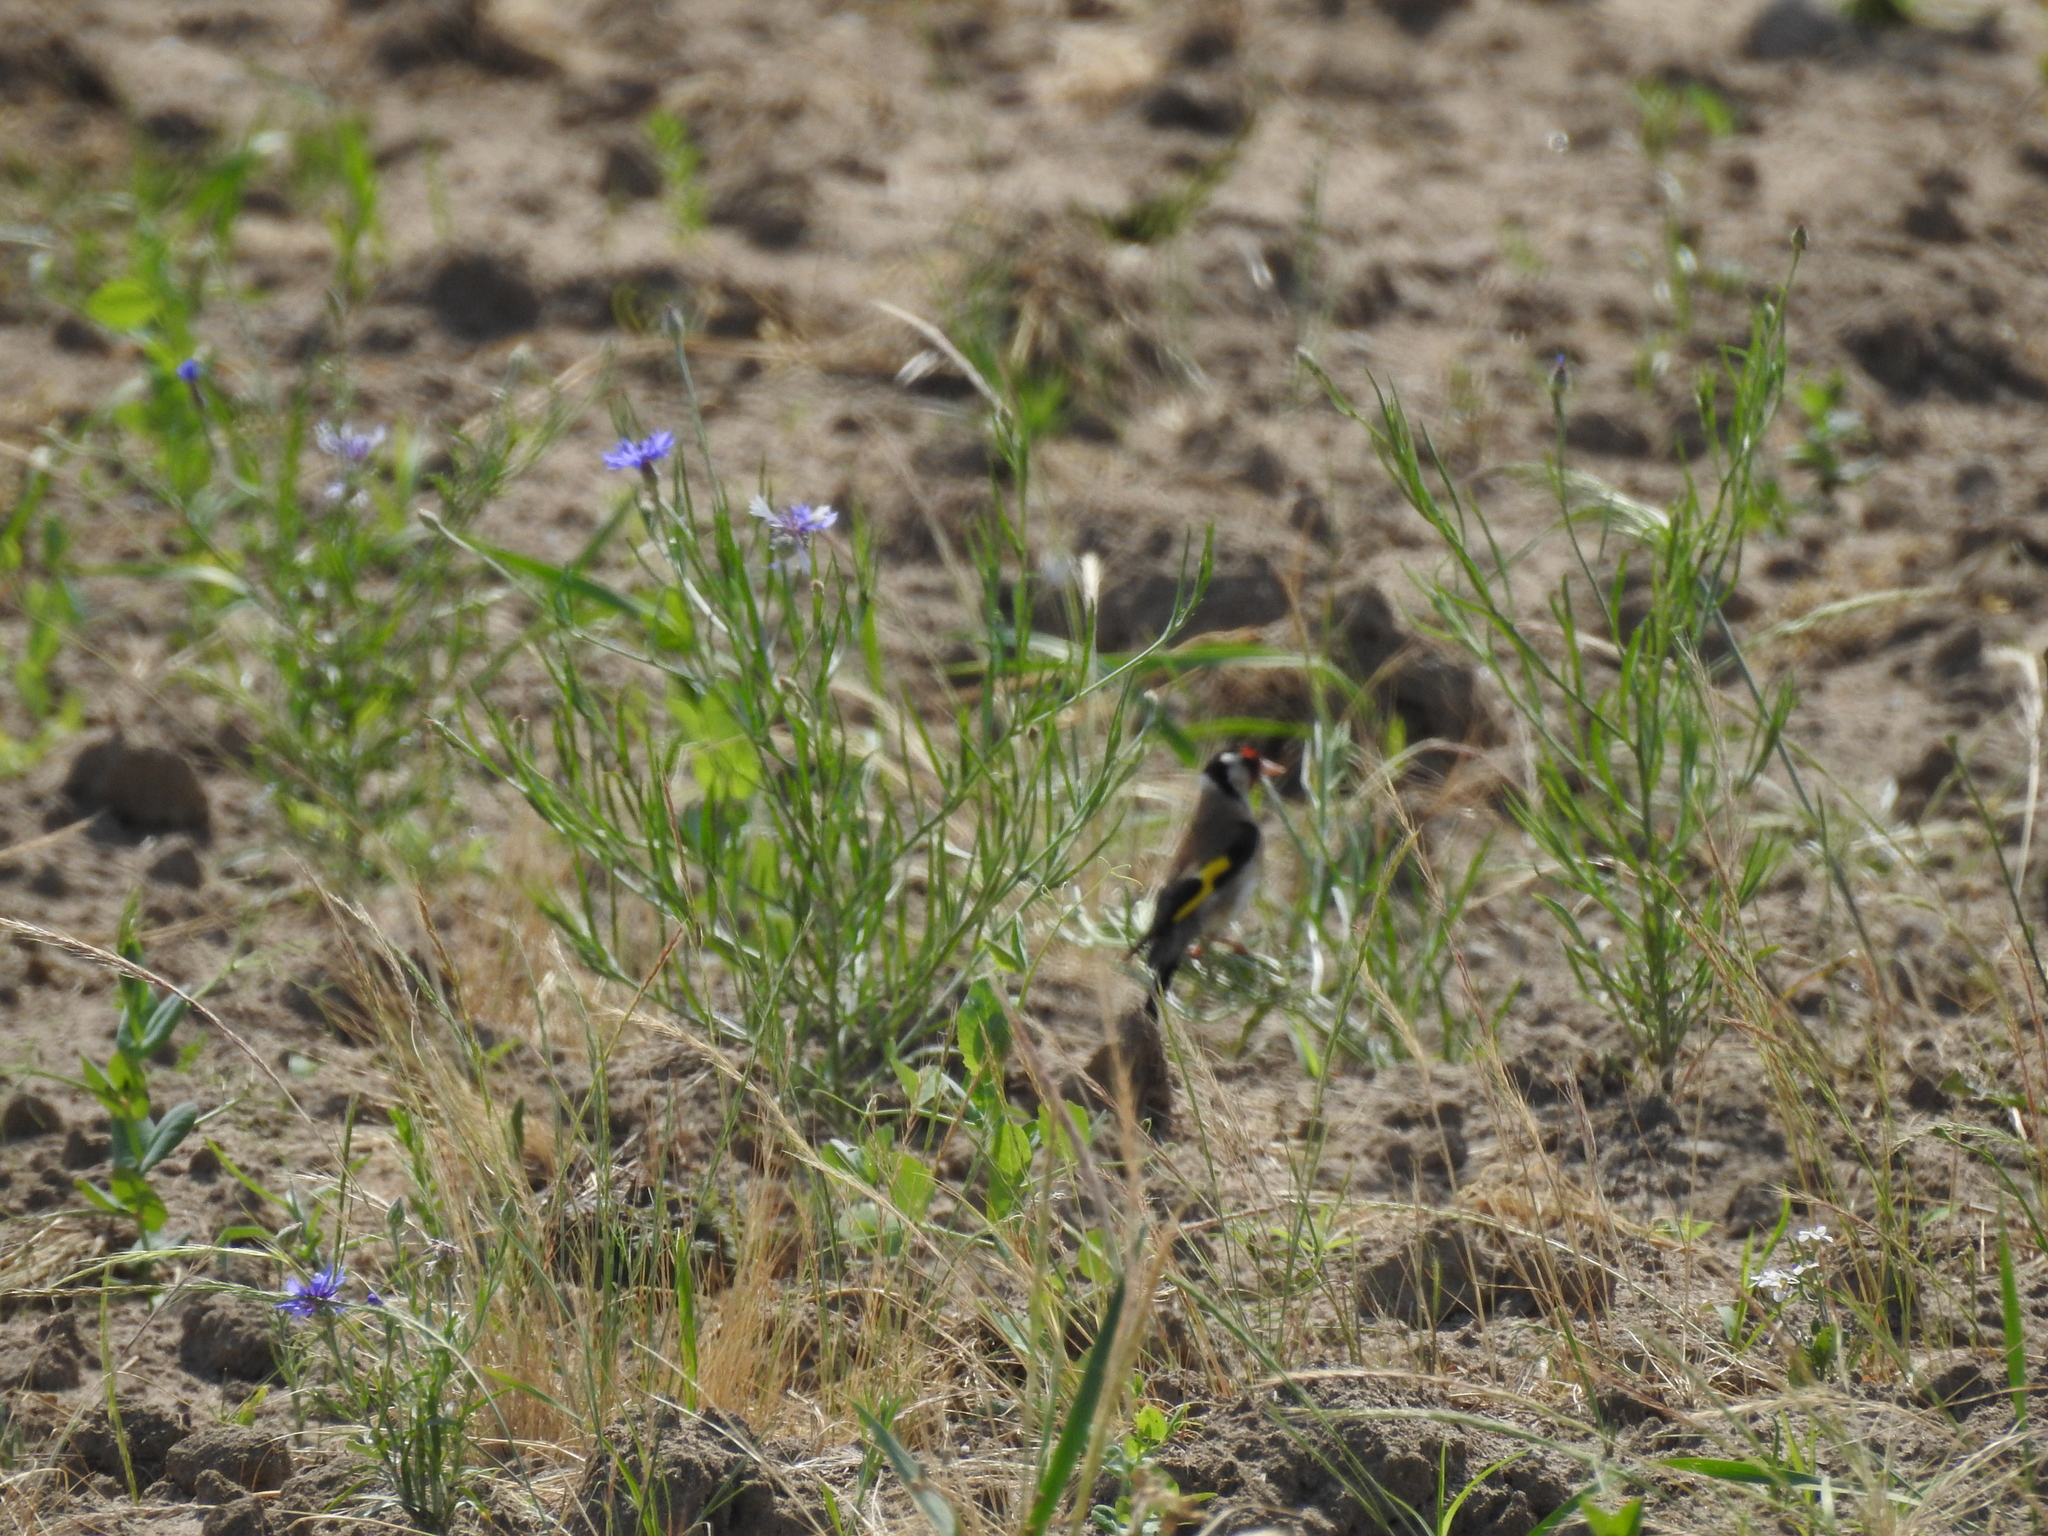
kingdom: Animalia
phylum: Chordata
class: Aves
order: Passeriformes
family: Fringillidae
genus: Carduelis
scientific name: Carduelis carduelis
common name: European goldfinch
